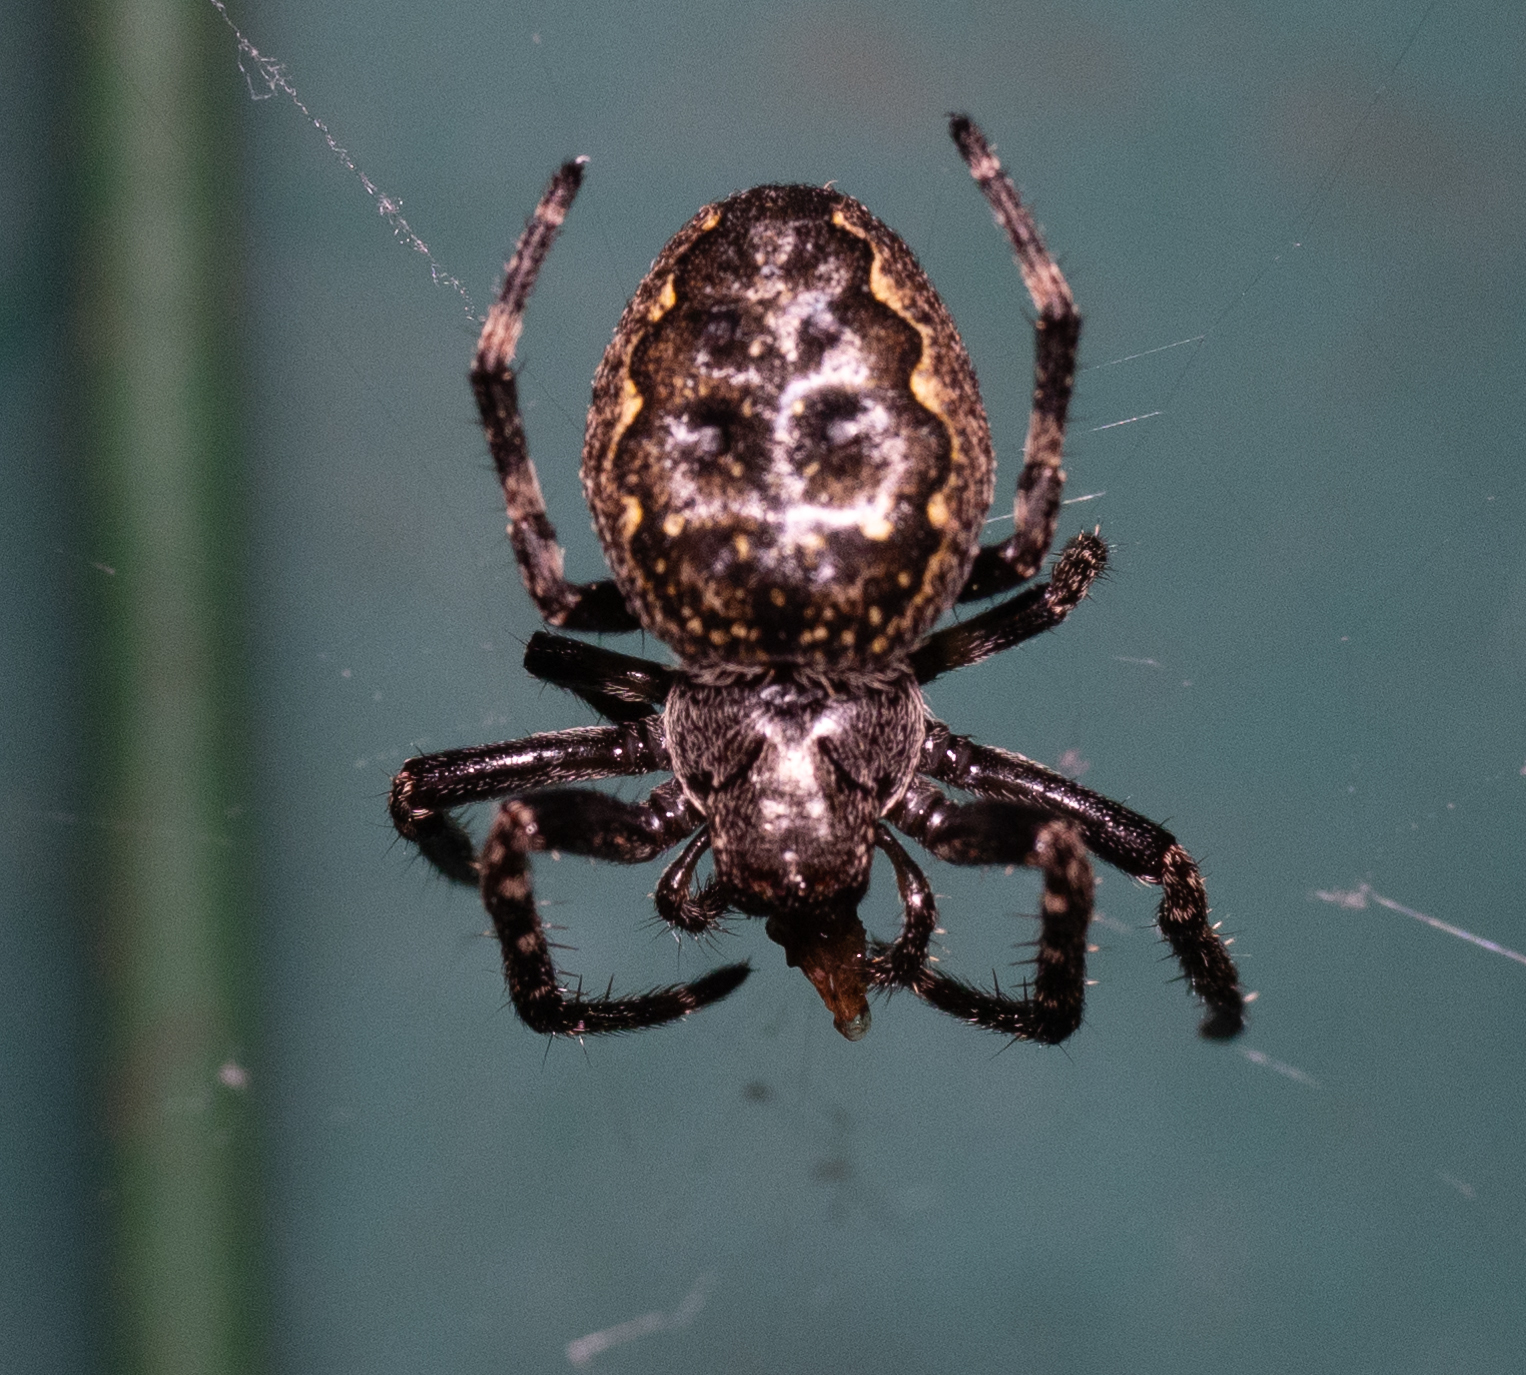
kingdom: Animalia
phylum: Arthropoda
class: Arachnida
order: Araneae
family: Araneidae
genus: Nuctenea
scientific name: Nuctenea umbratica
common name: Toad spider
